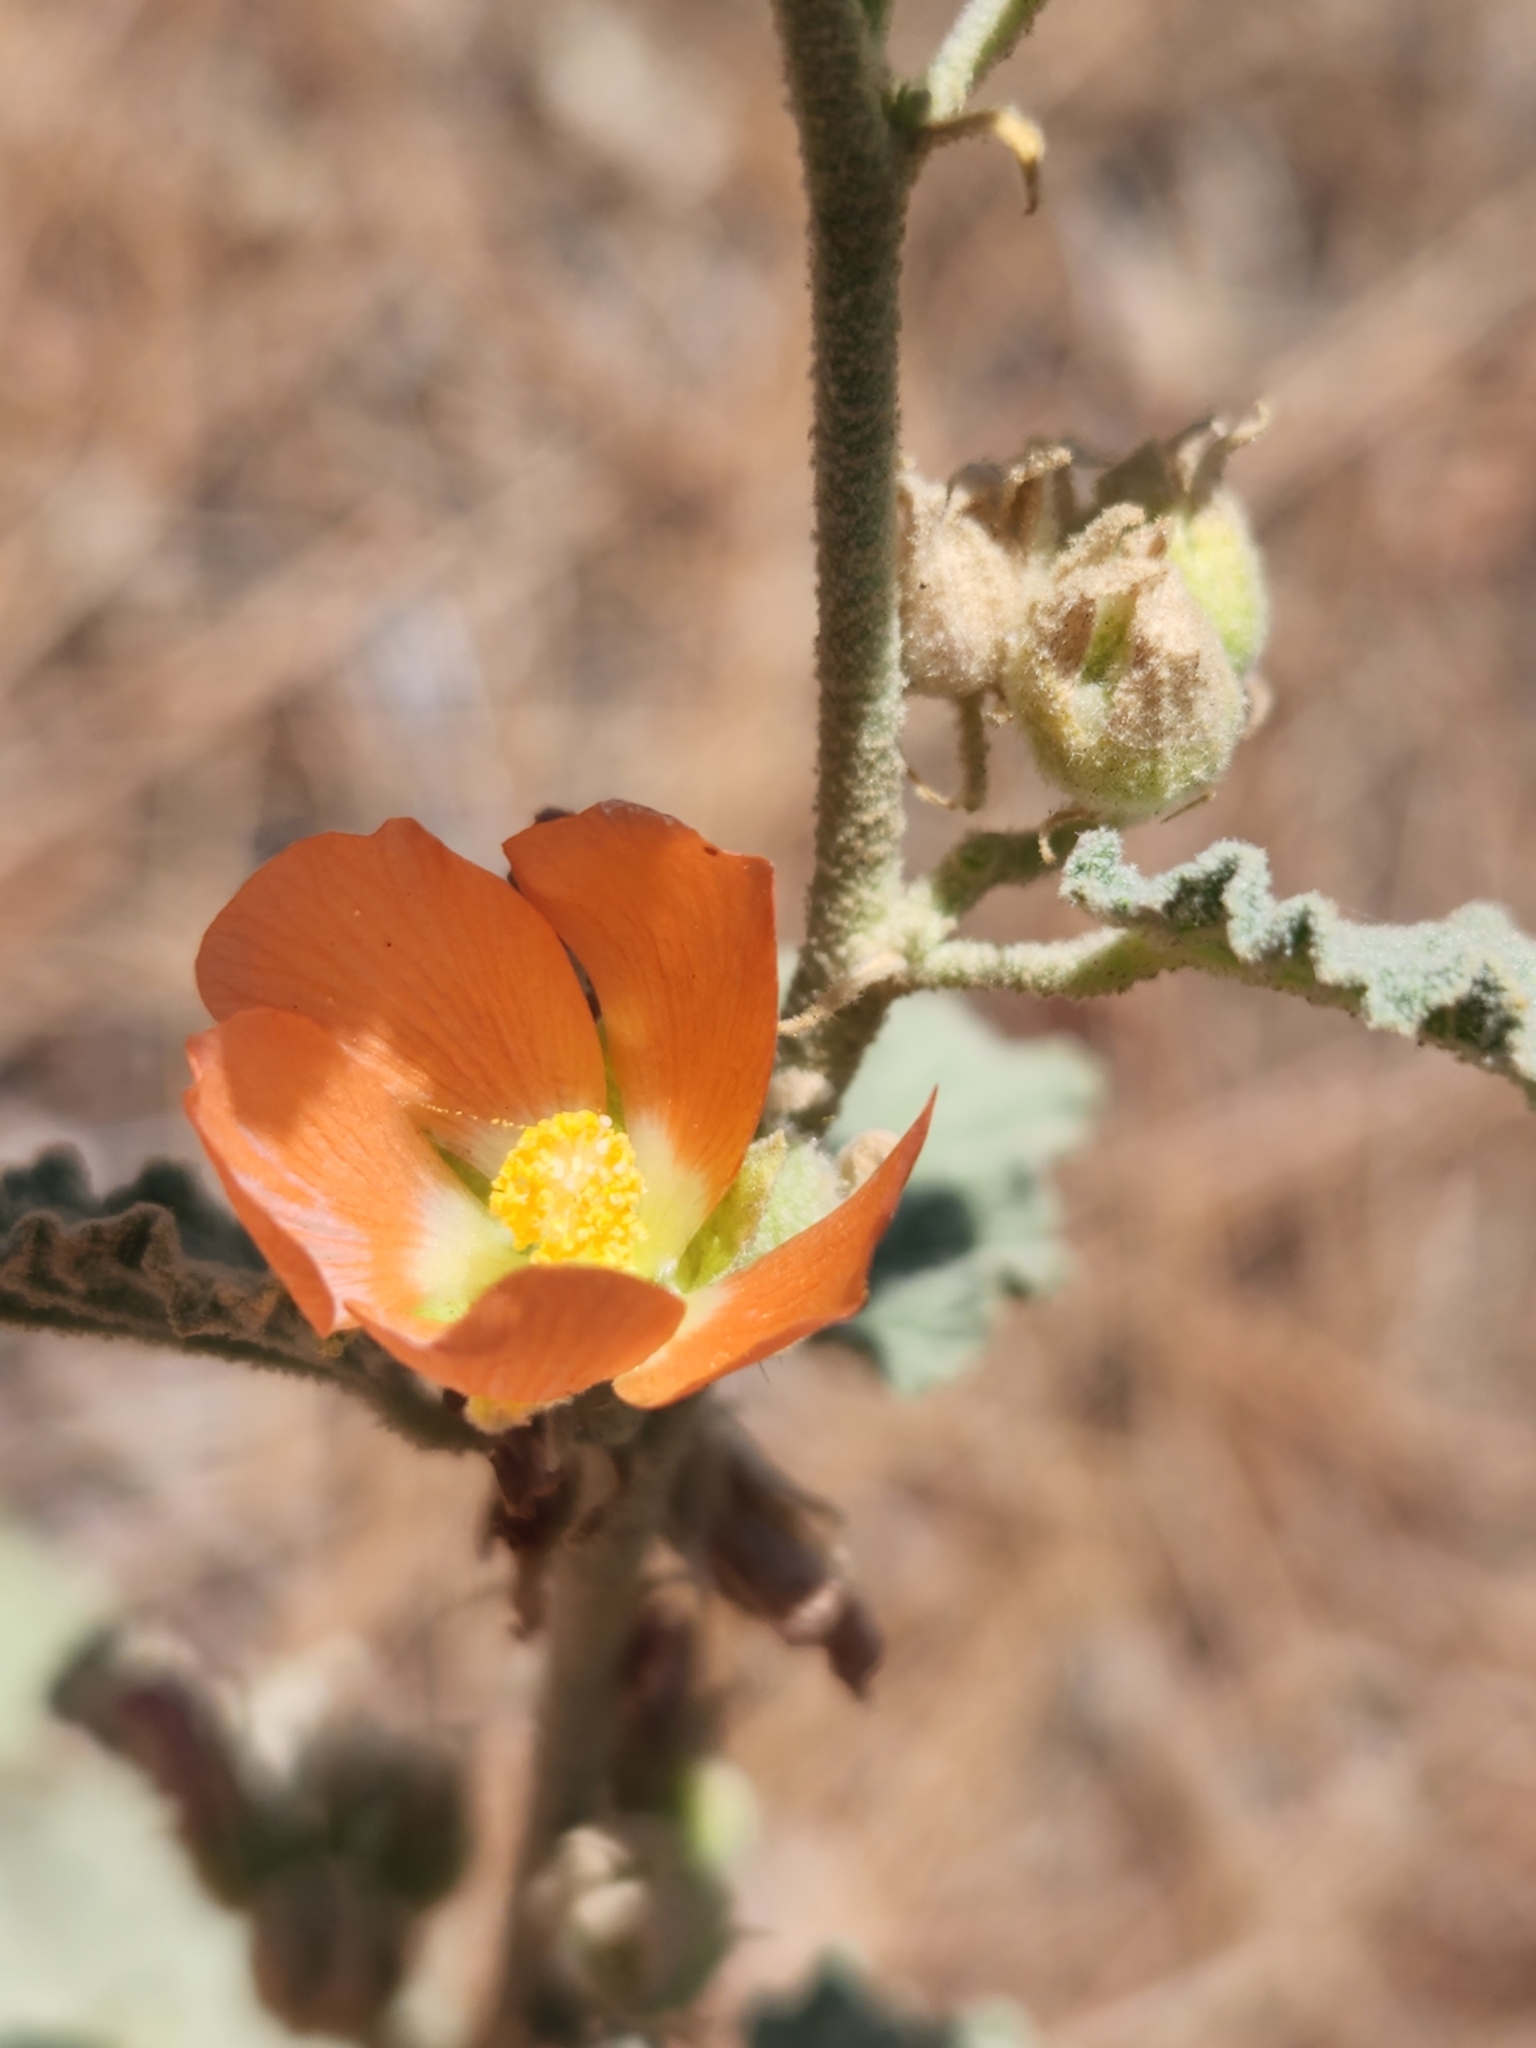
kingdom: Plantae
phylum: Tracheophyta
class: Magnoliopsida
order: Malvales
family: Malvaceae
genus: Sphaeralcea
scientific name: Sphaeralcea ambigua
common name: Apricot globe-mallow
